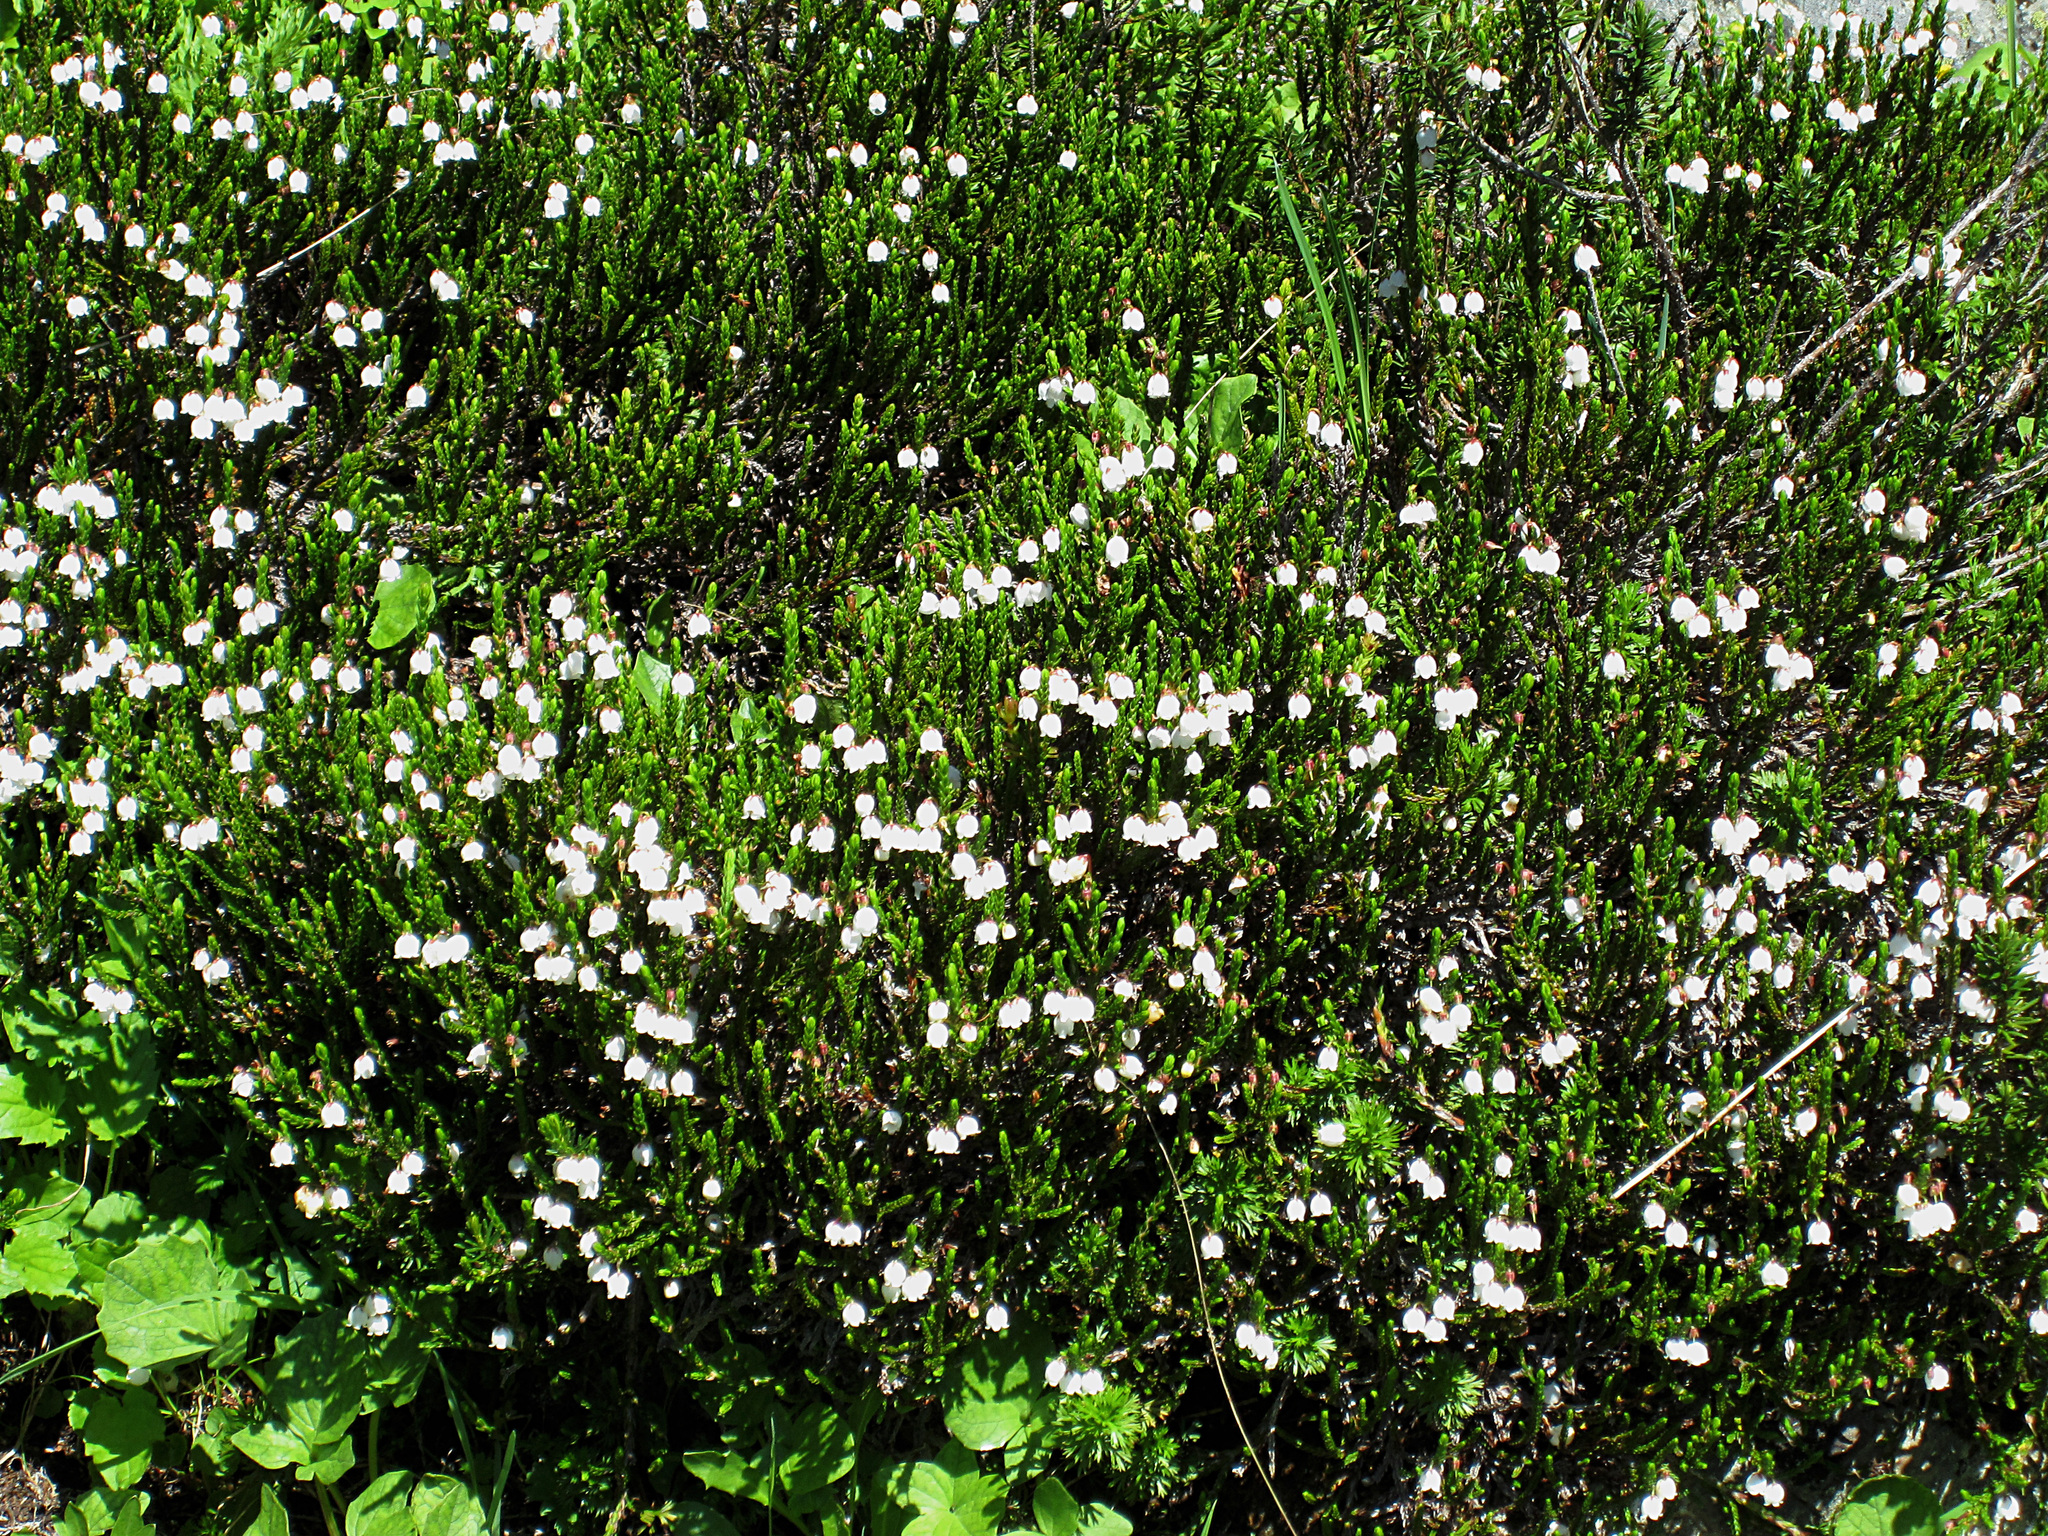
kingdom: Plantae
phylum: Tracheophyta
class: Magnoliopsida
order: Ericales
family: Ericaceae
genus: Cassiope
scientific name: Cassiope mertensiana
